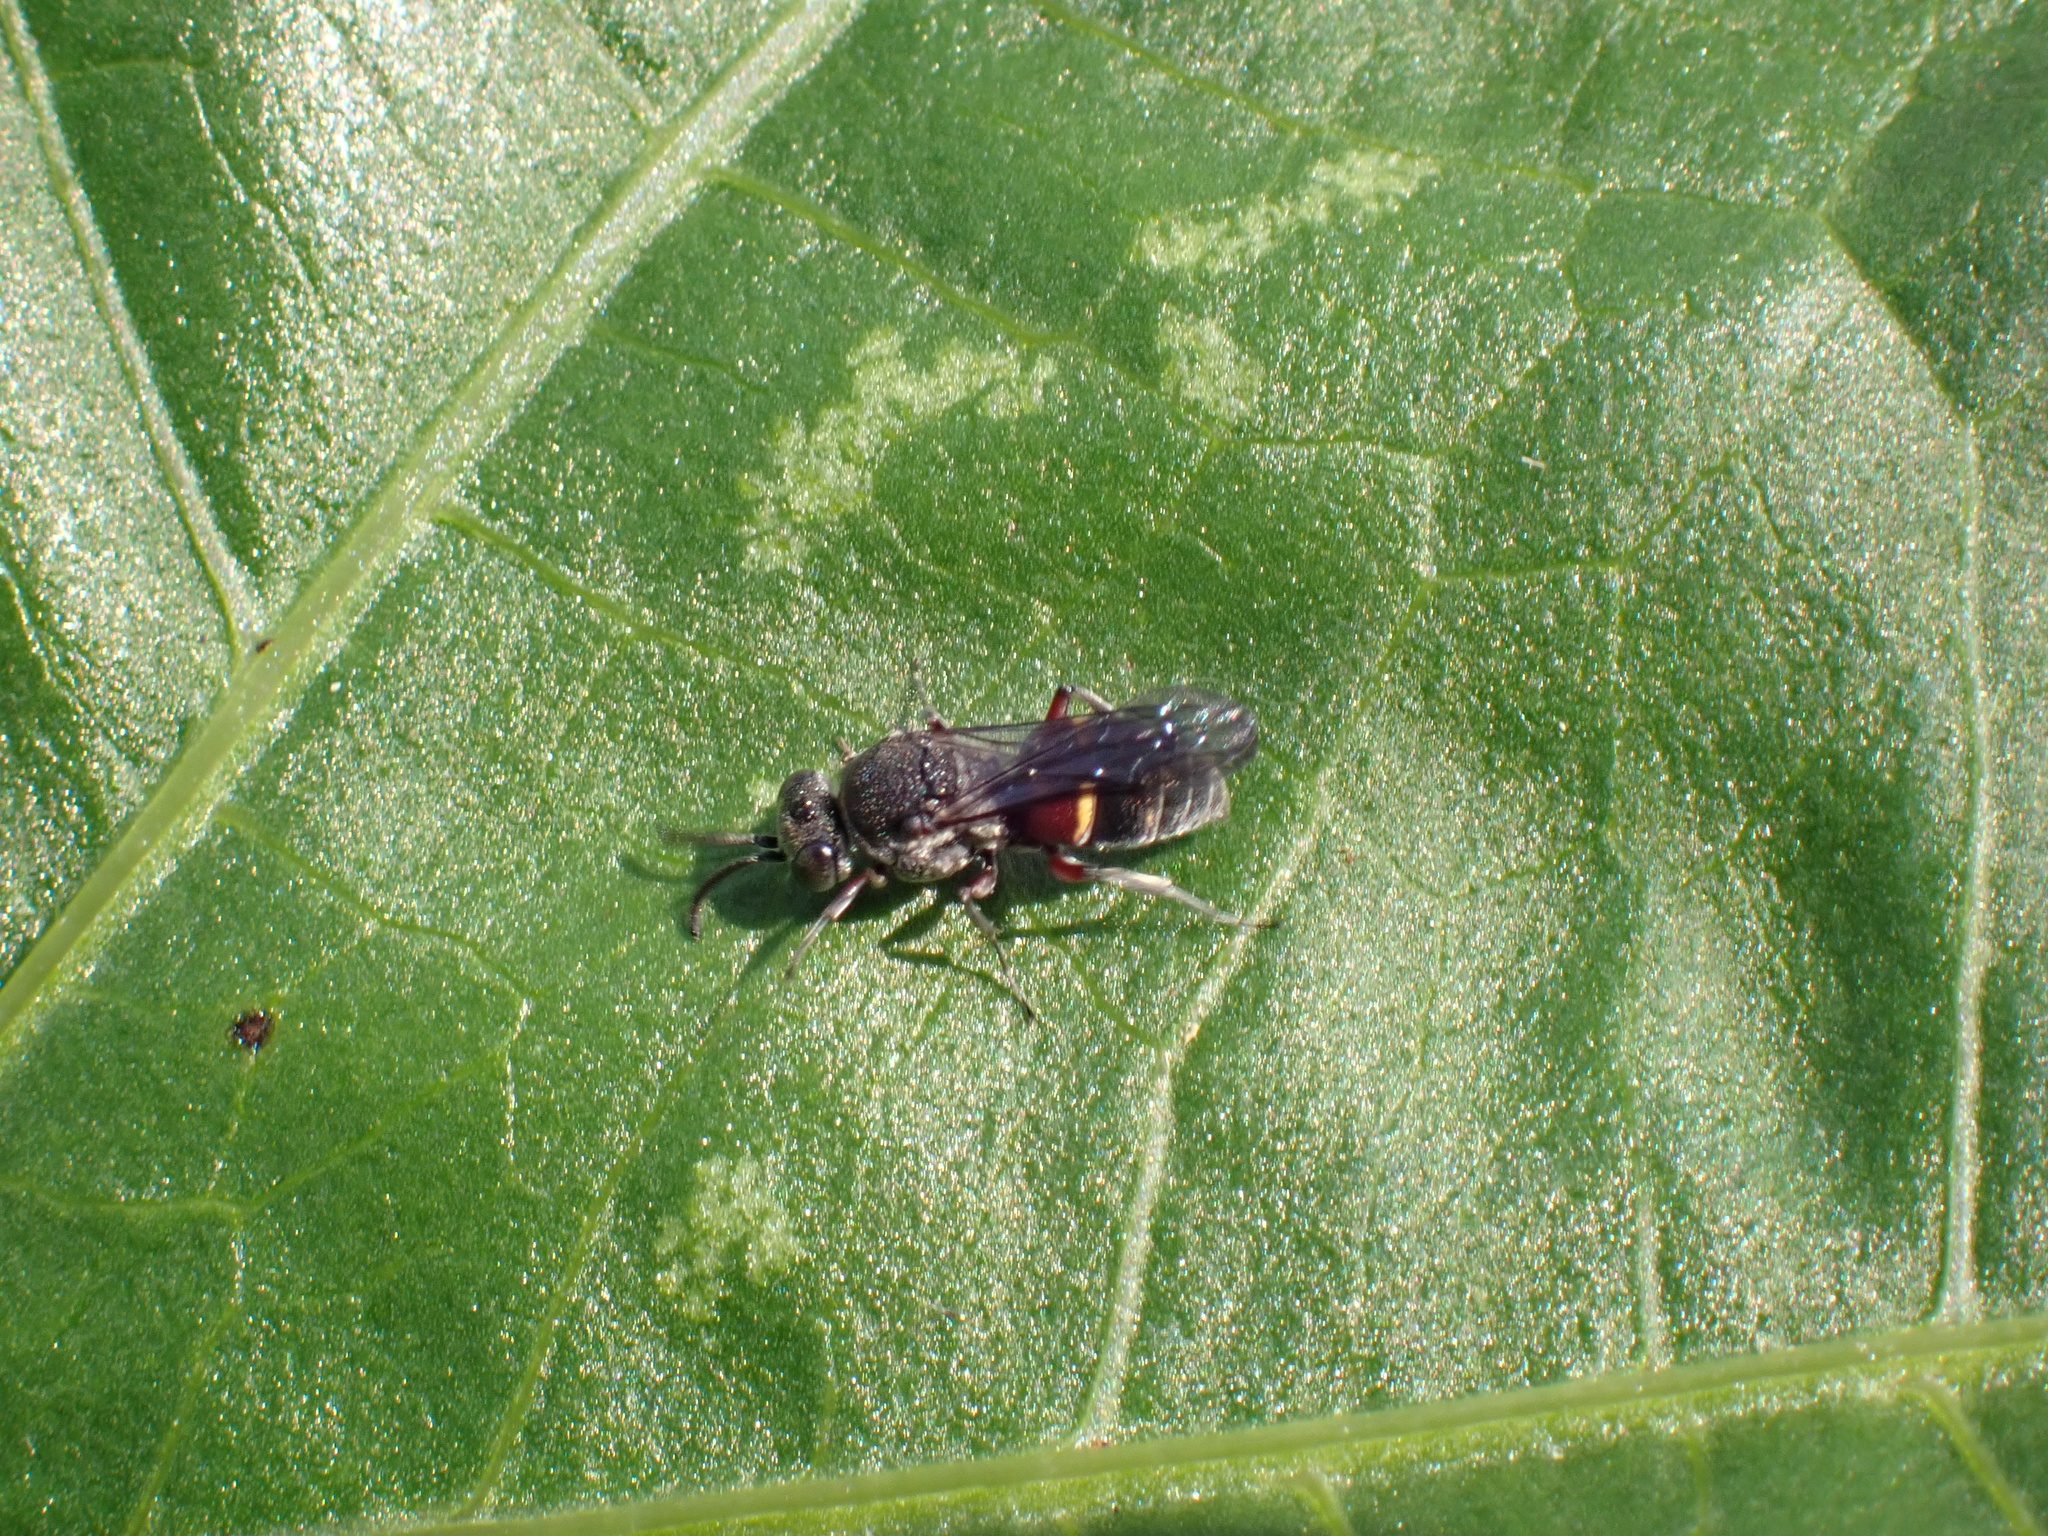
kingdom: Animalia
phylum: Arthropoda
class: Insecta
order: Hymenoptera
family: Crabronidae
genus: Epinysson
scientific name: Epinysson tuberculatus
